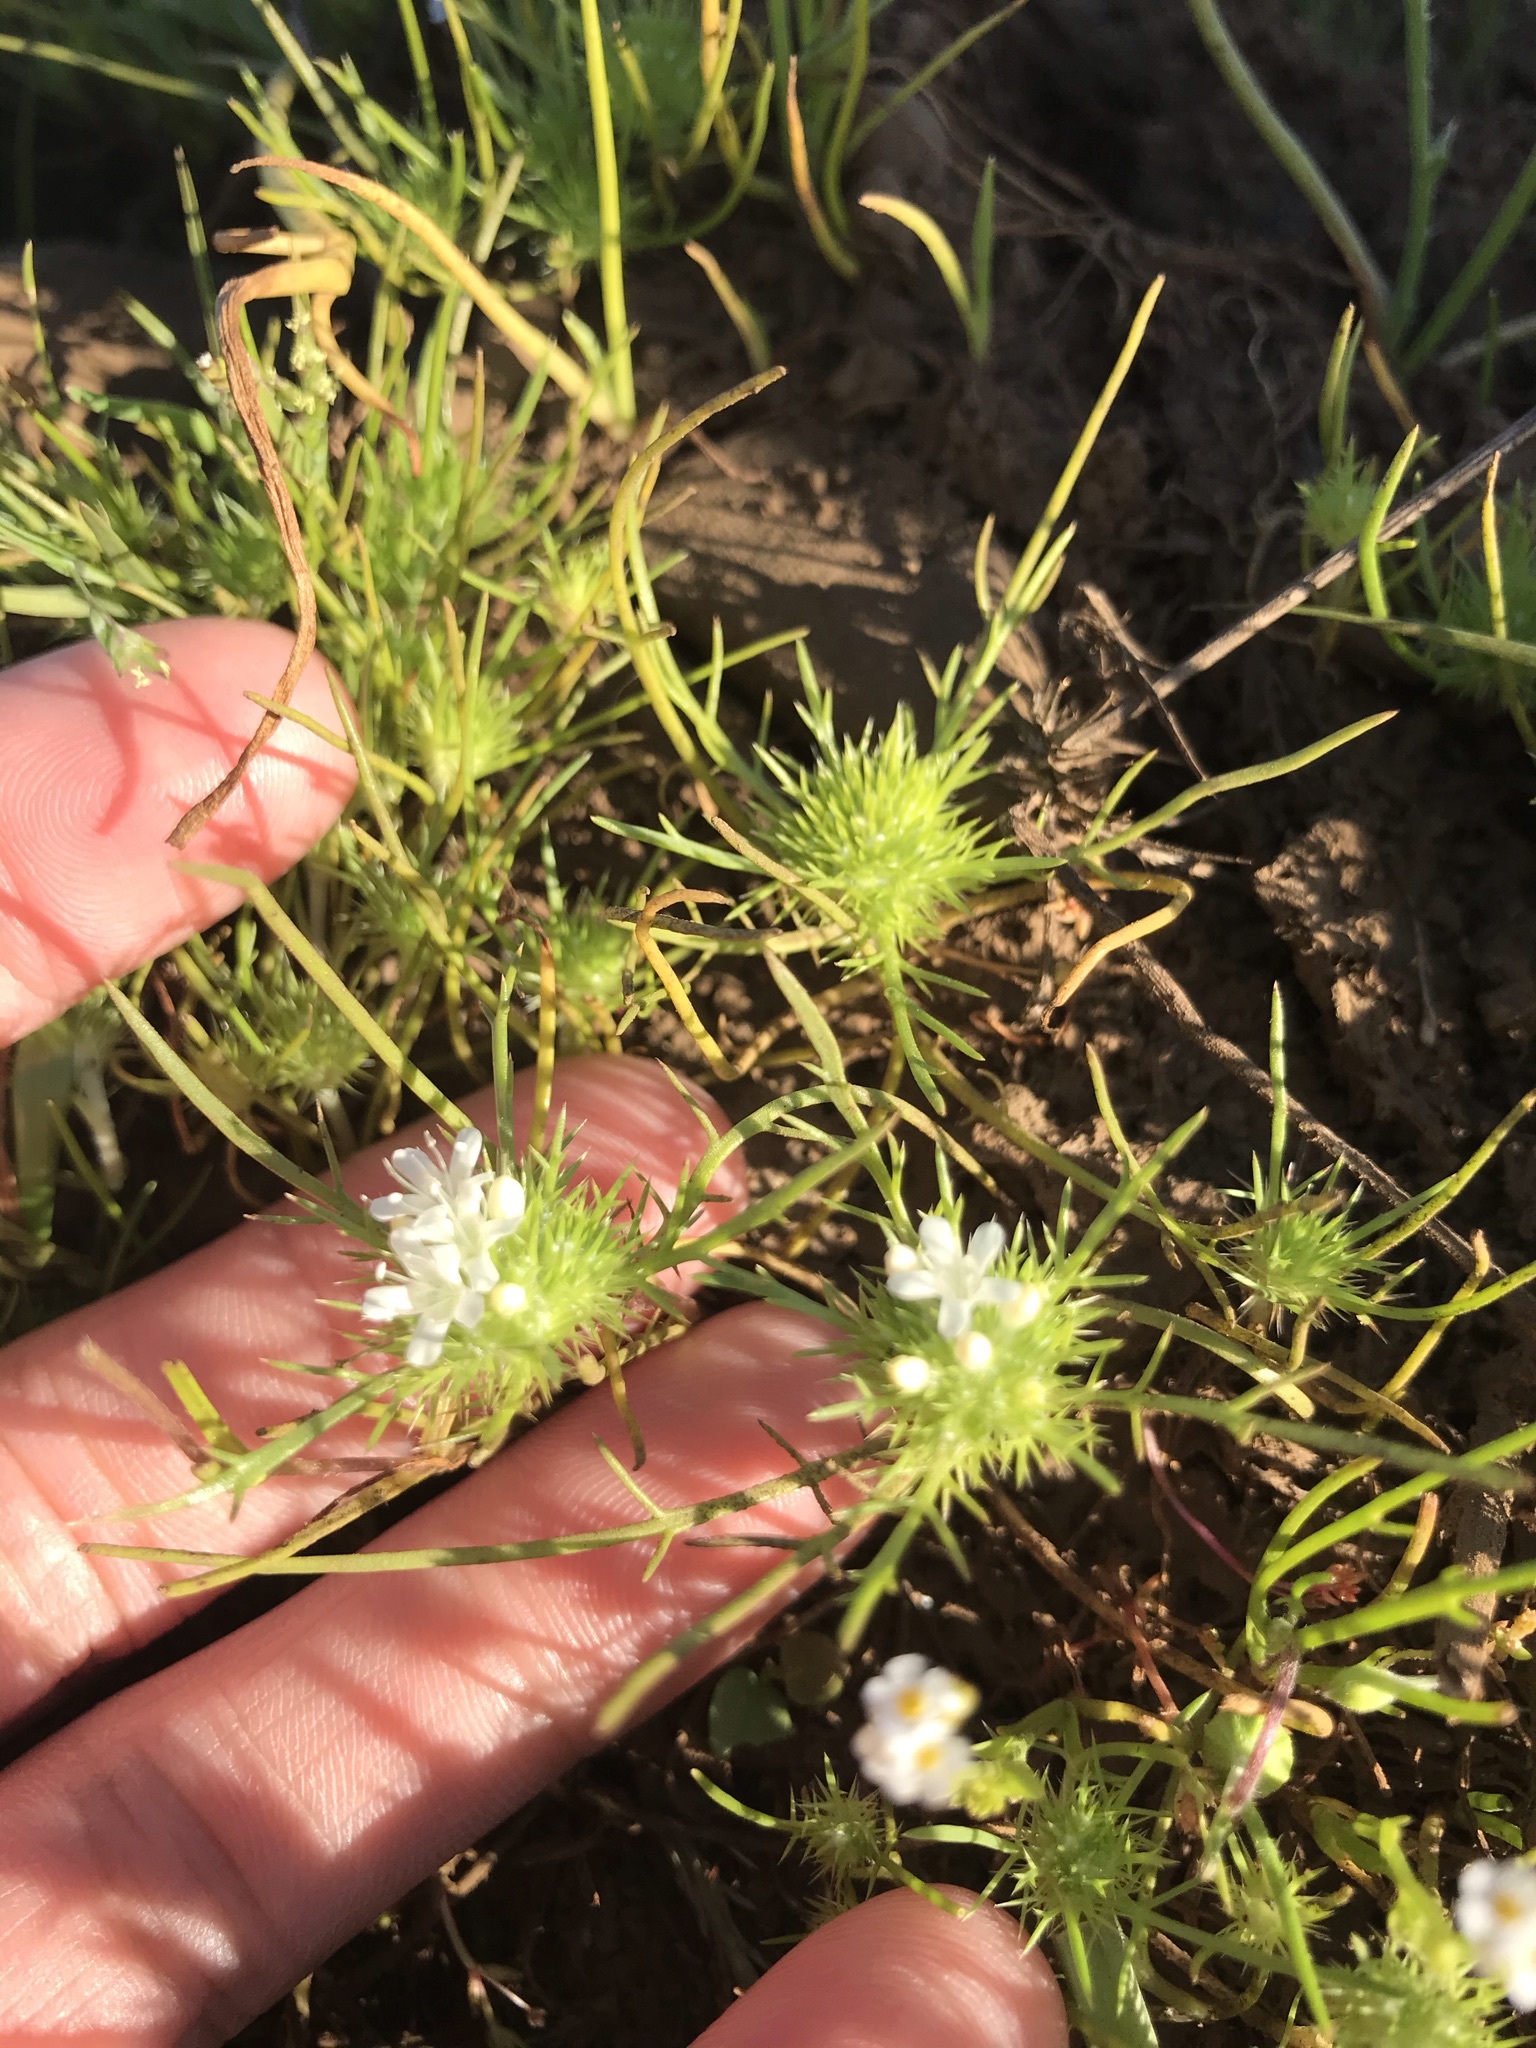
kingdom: Plantae
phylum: Tracheophyta
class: Magnoliopsida
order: Ericales
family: Polemoniaceae
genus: Navarretia
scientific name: Navarretia leucocephala
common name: White-flowered navarretia
